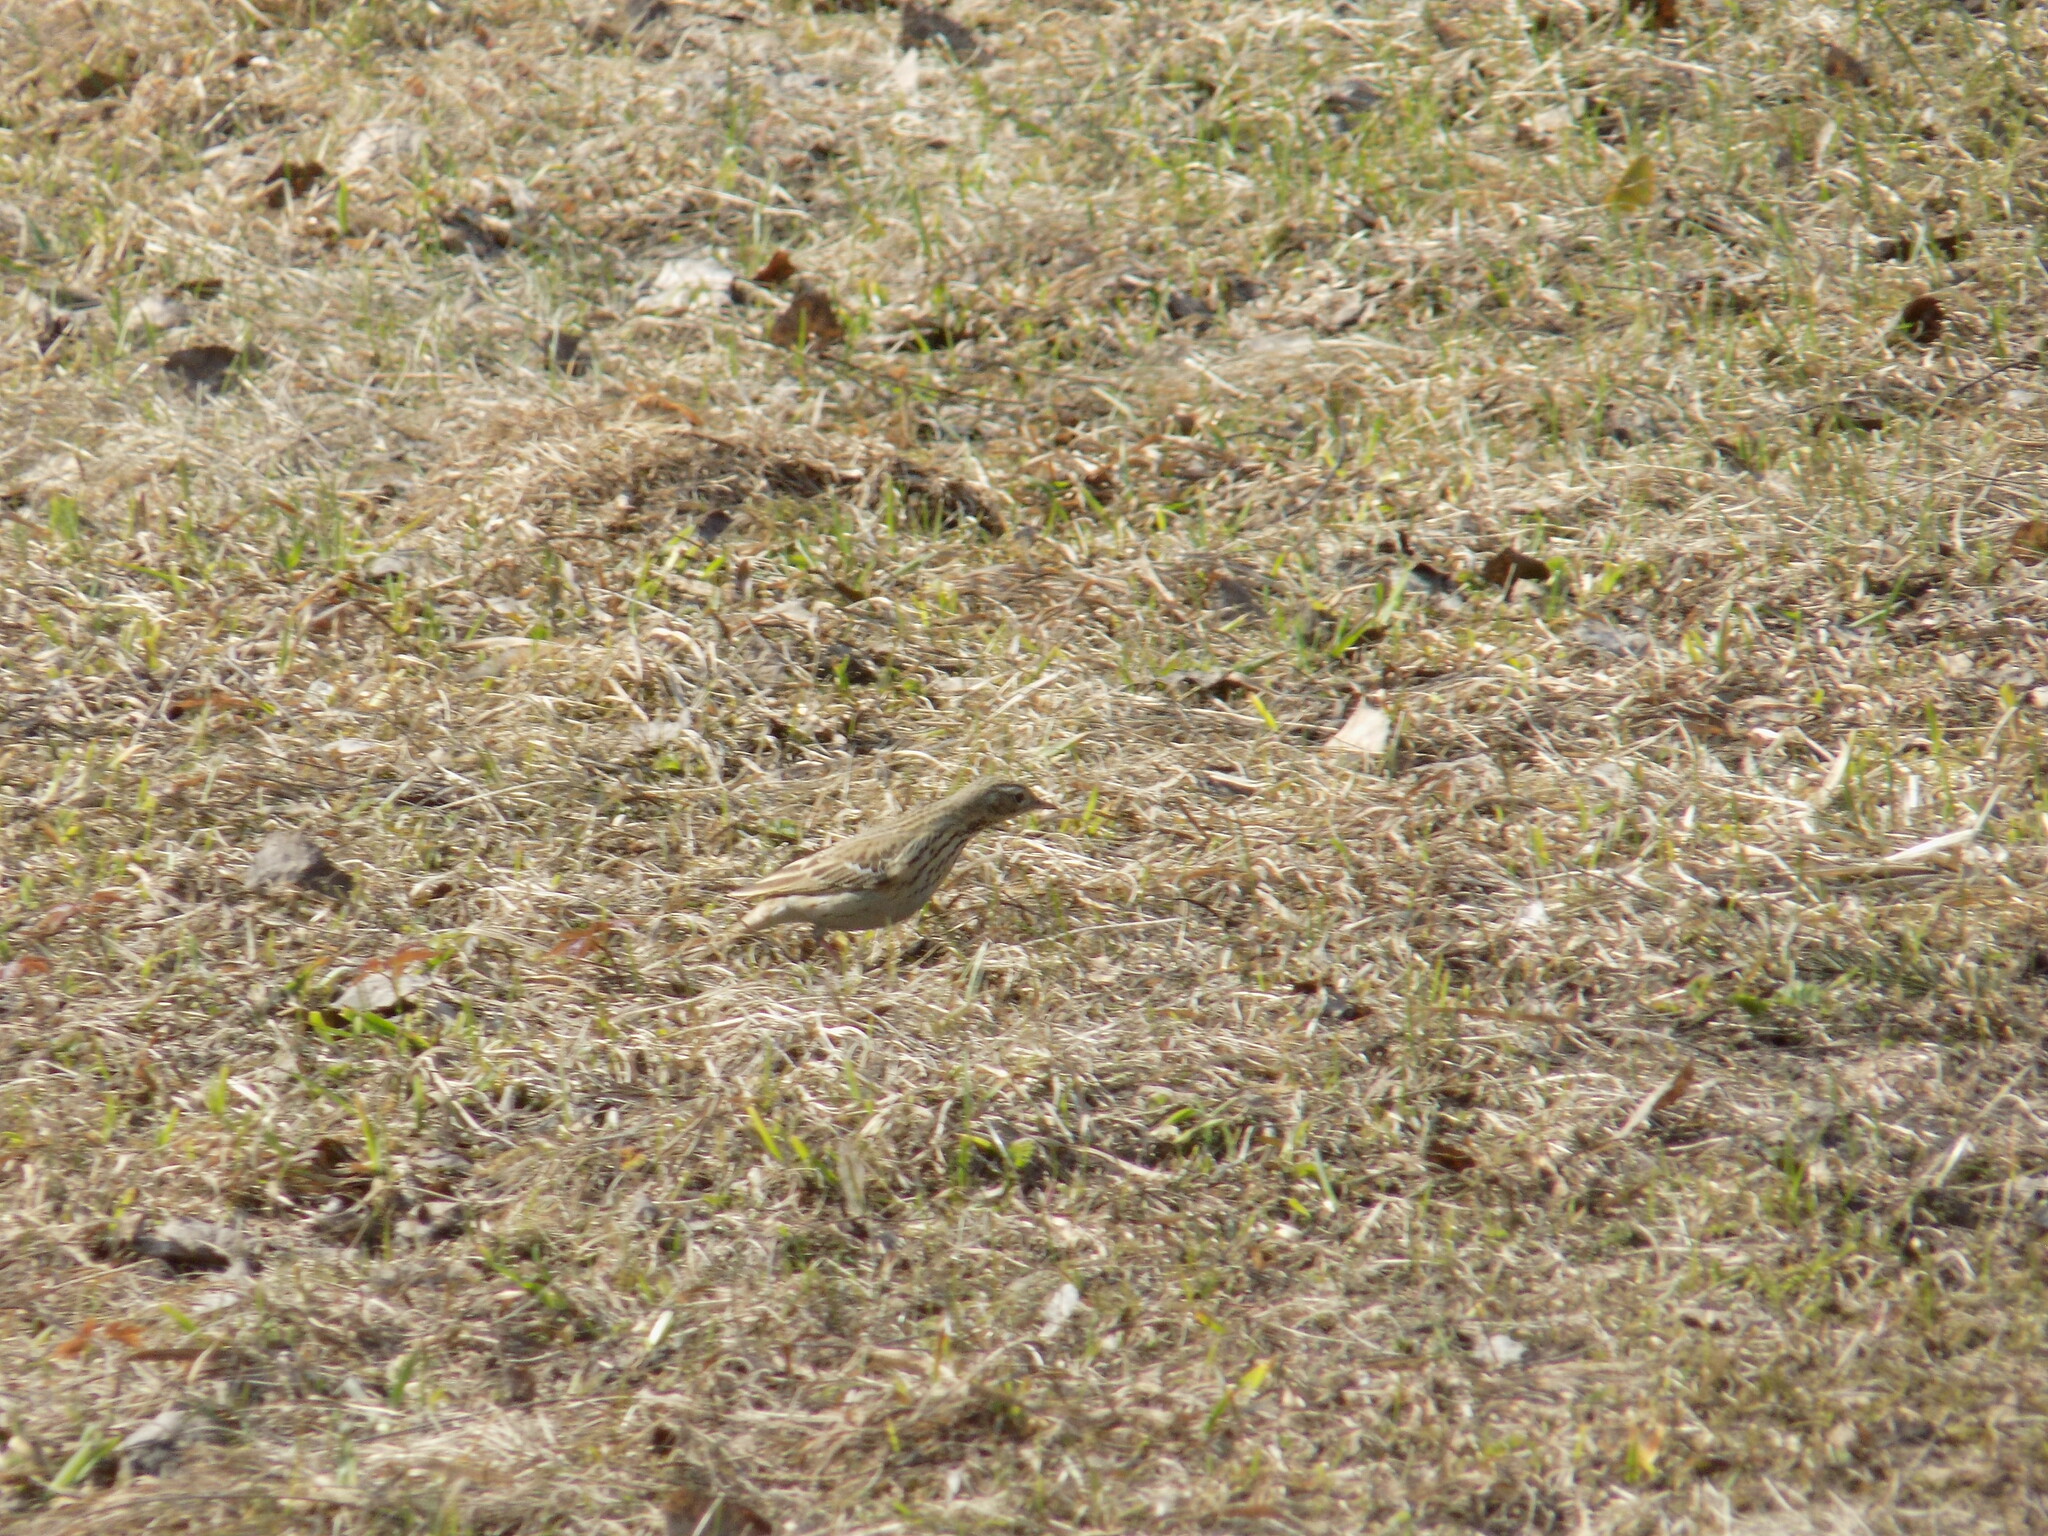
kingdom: Animalia
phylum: Chordata
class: Aves
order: Passeriformes
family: Motacillidae
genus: Anthus
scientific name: Anthus trivialis
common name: Tree pipit
